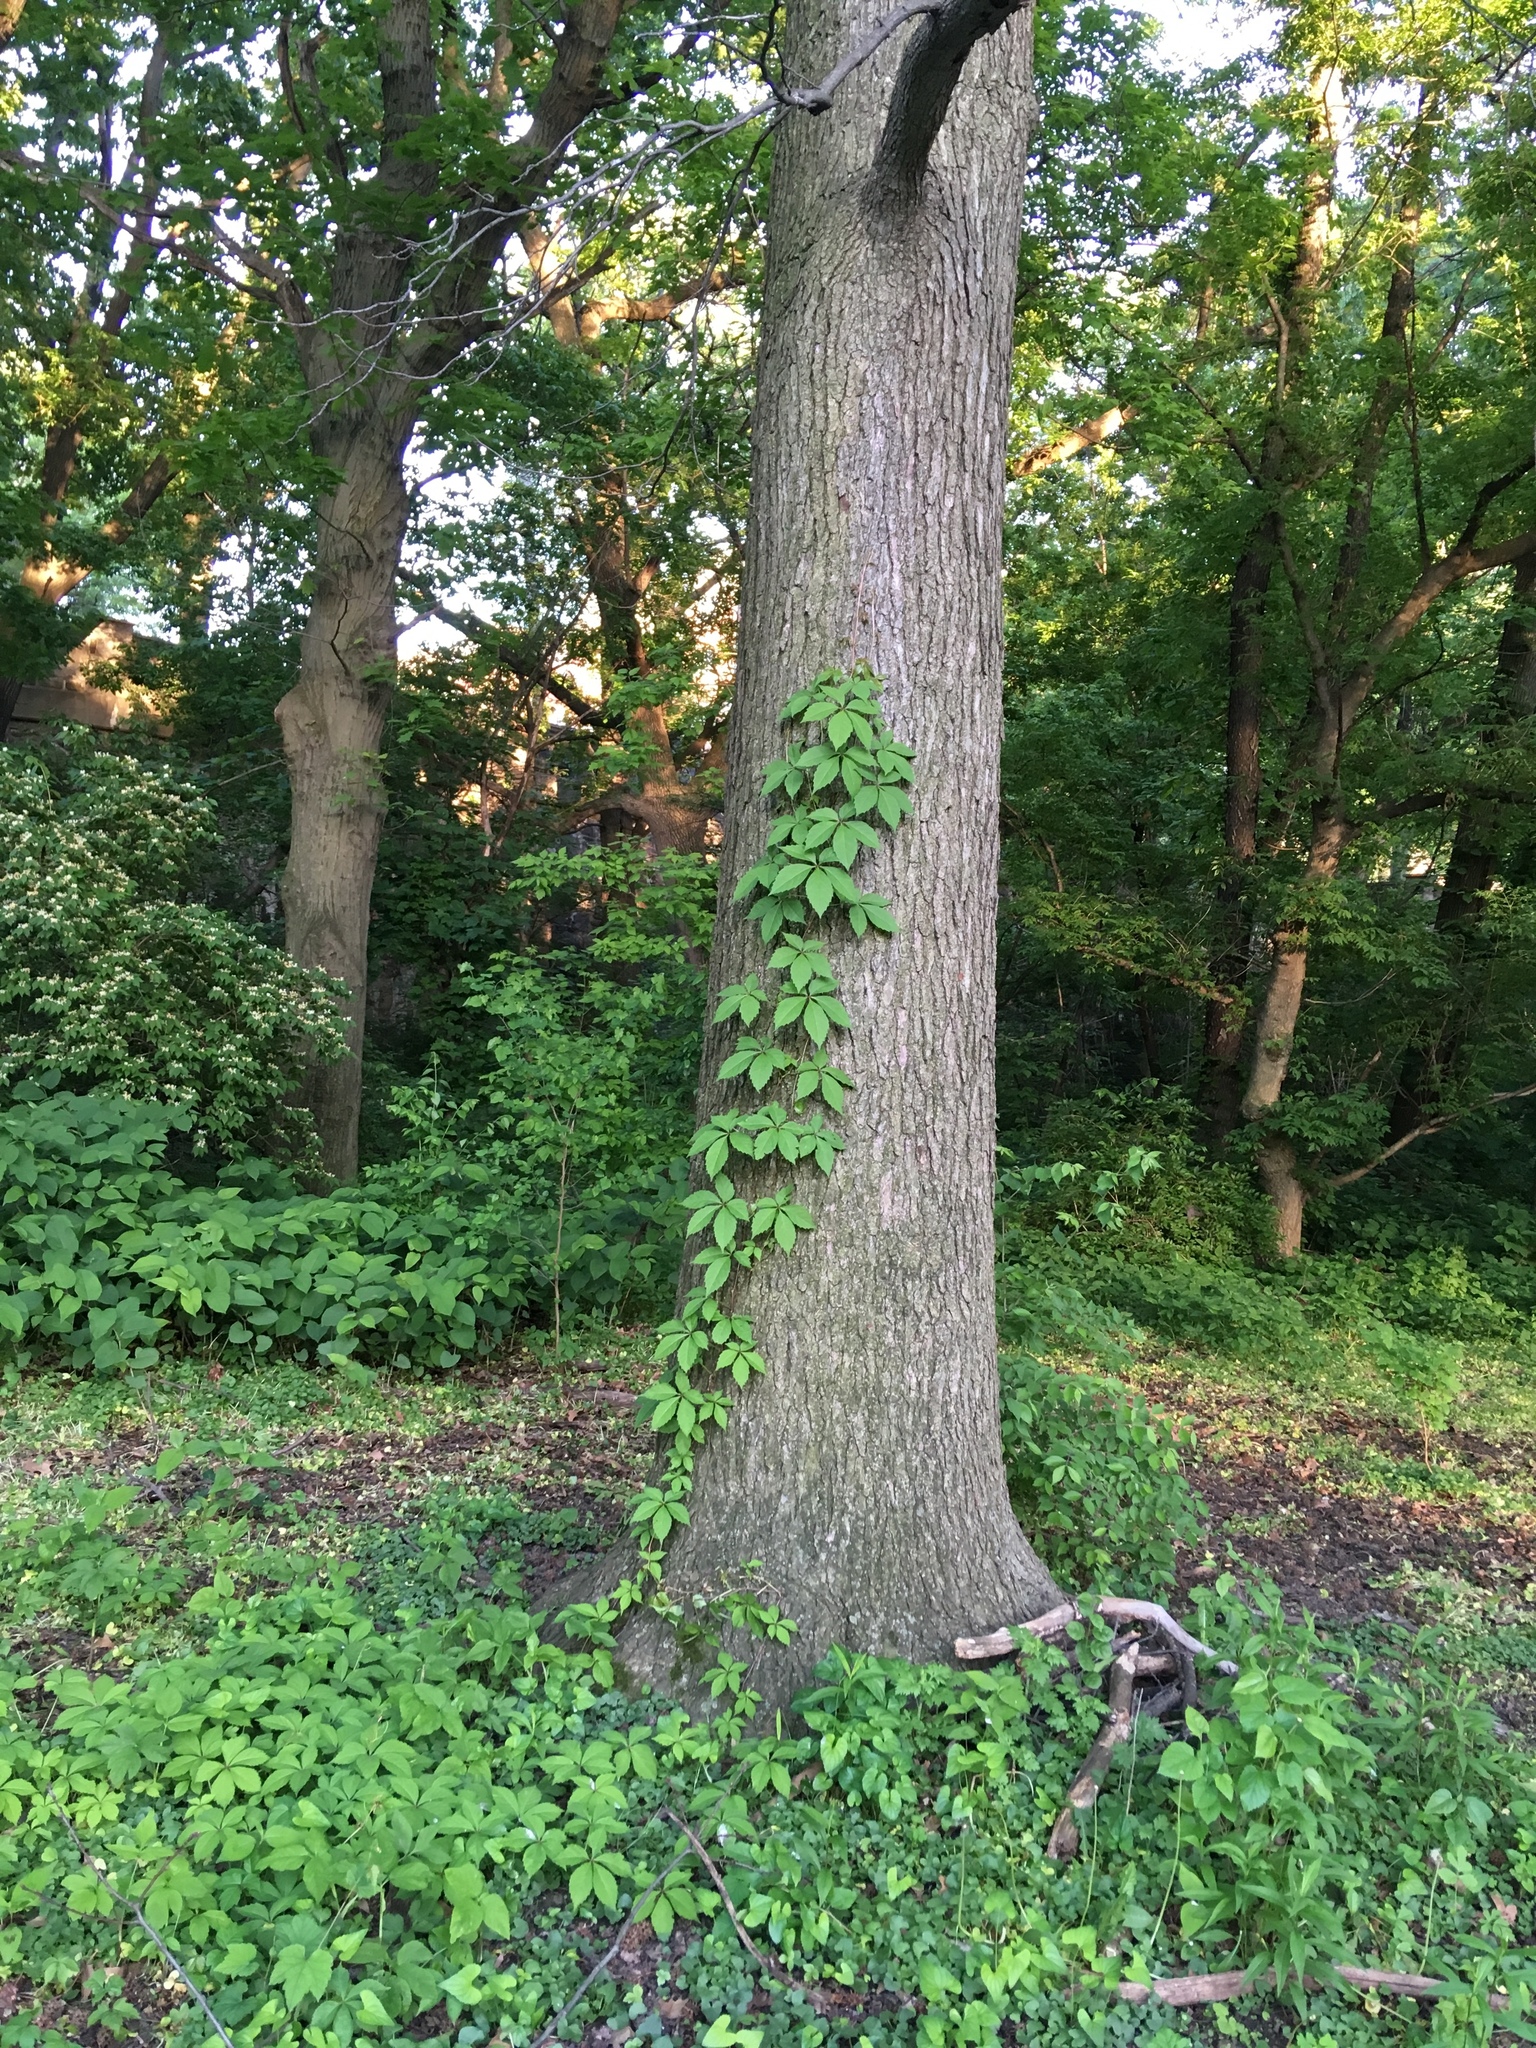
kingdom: Plantae
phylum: Tracheophyta
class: Magnoliopsida
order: Vitales
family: Vitaceae
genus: Parthenocissus
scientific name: Parthenocissus quinquefolia
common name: Virginia-creeper
